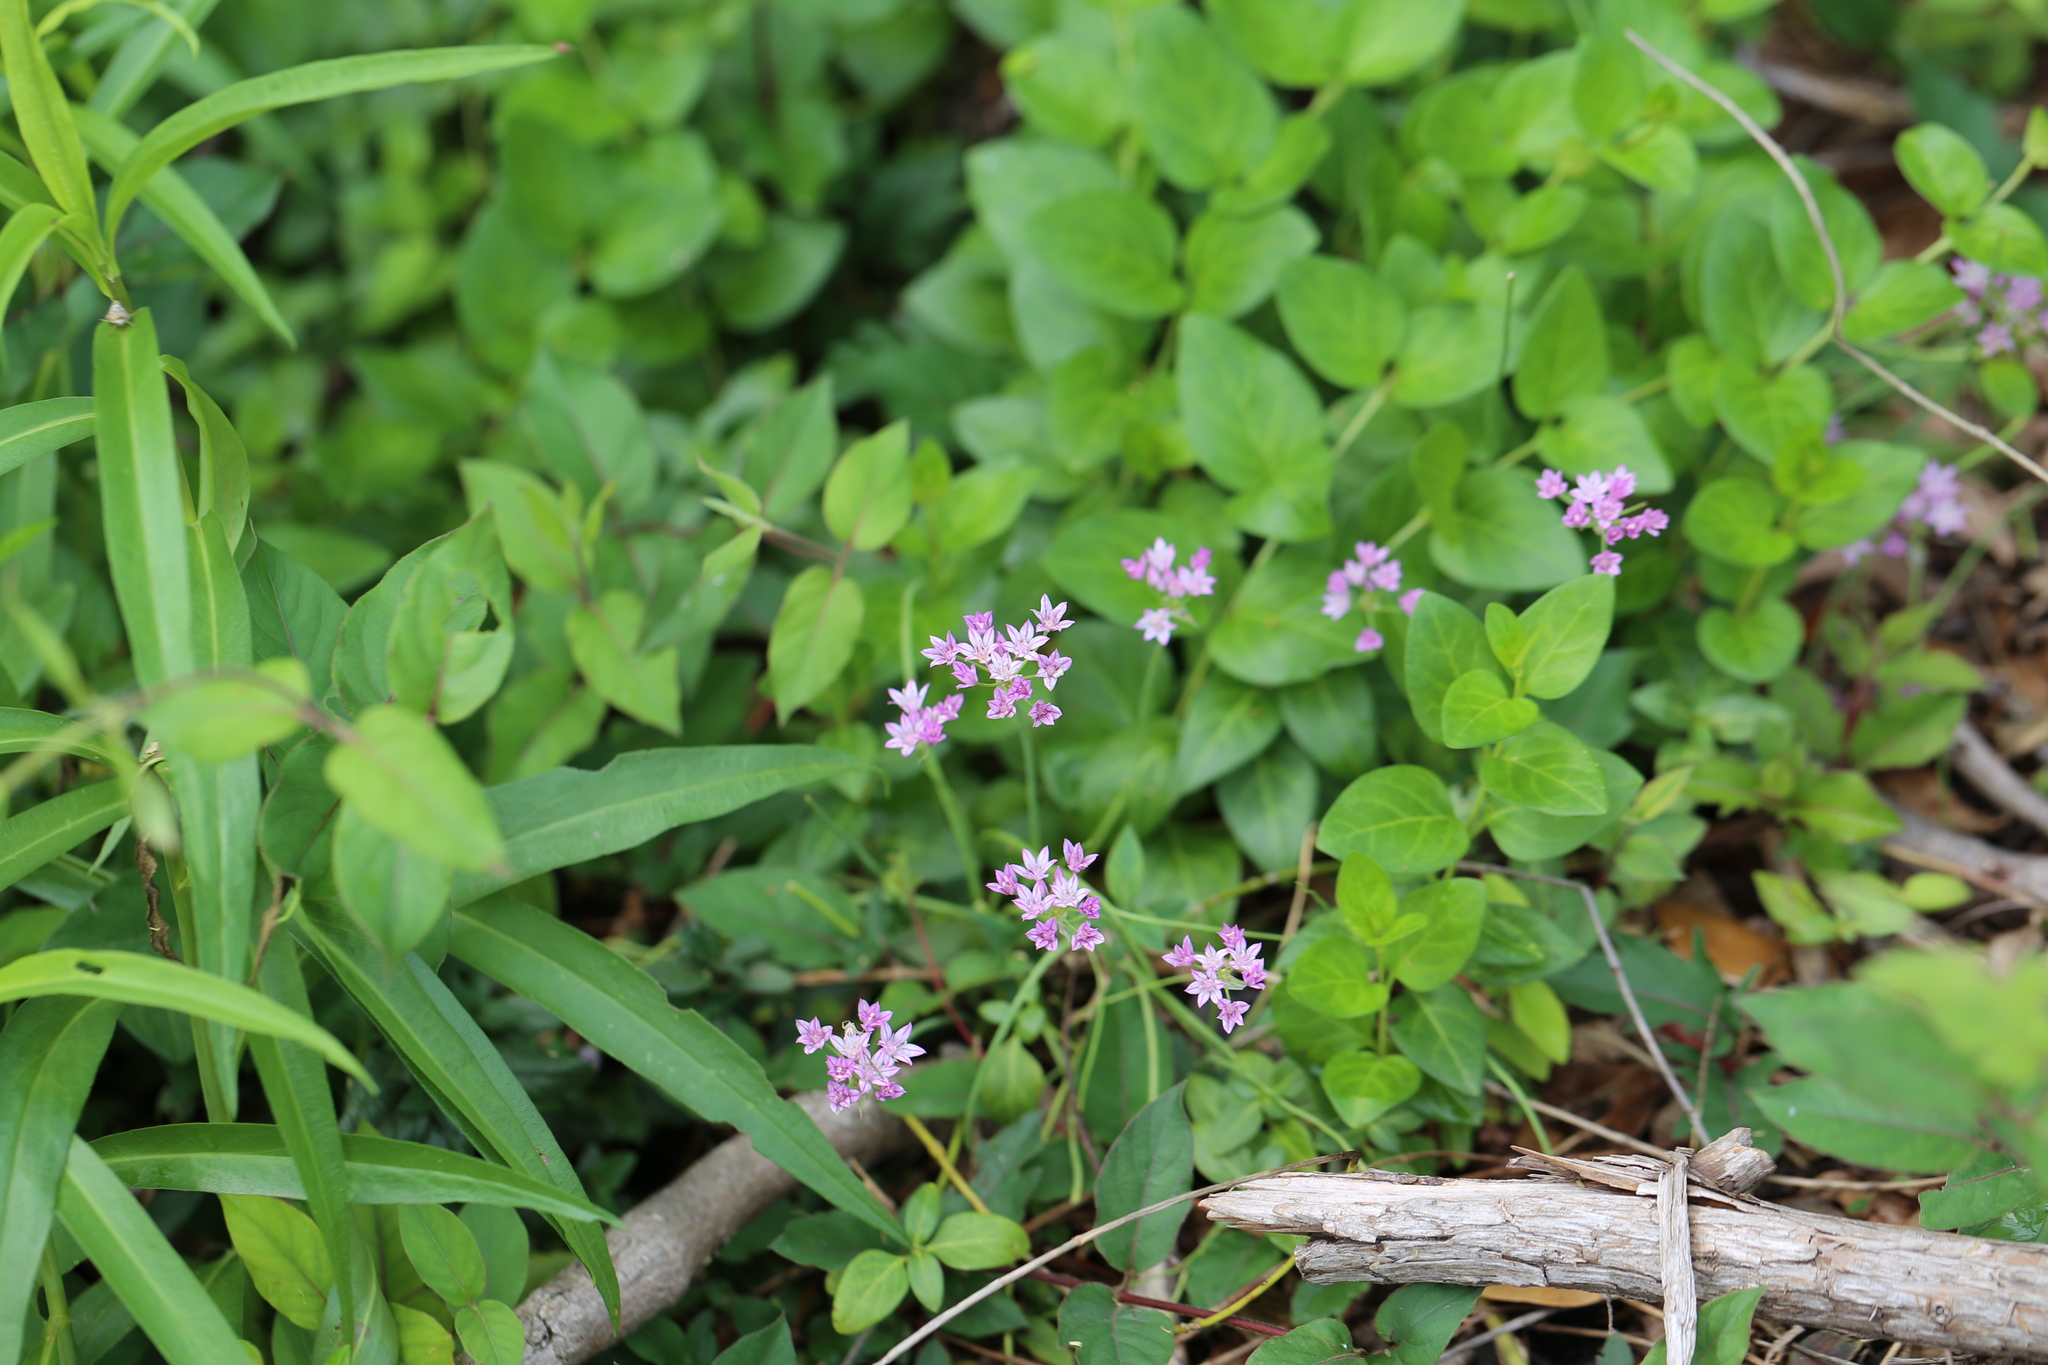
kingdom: Plantae
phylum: Tracheophyta
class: Liliopsida
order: Asparagales
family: Amaryllidaceae
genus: Allium
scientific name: Allium drummondii
